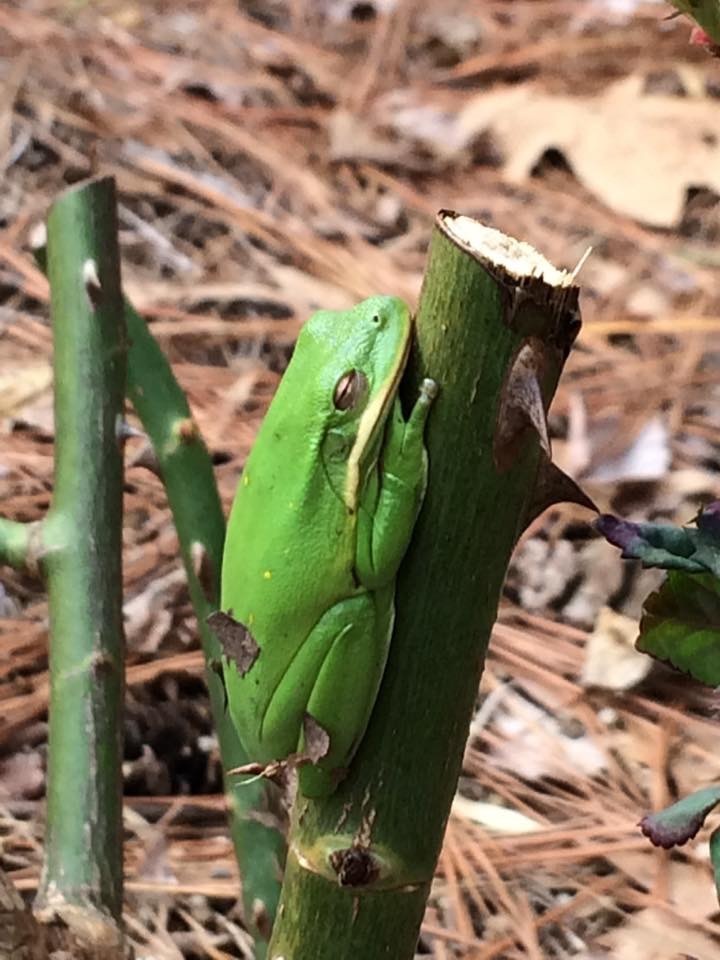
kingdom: Animalia
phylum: Chordata
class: Amphibia
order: Anura
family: Hylidae
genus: Dryophytes
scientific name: Dryophytes cinereus
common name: Green treefrog
